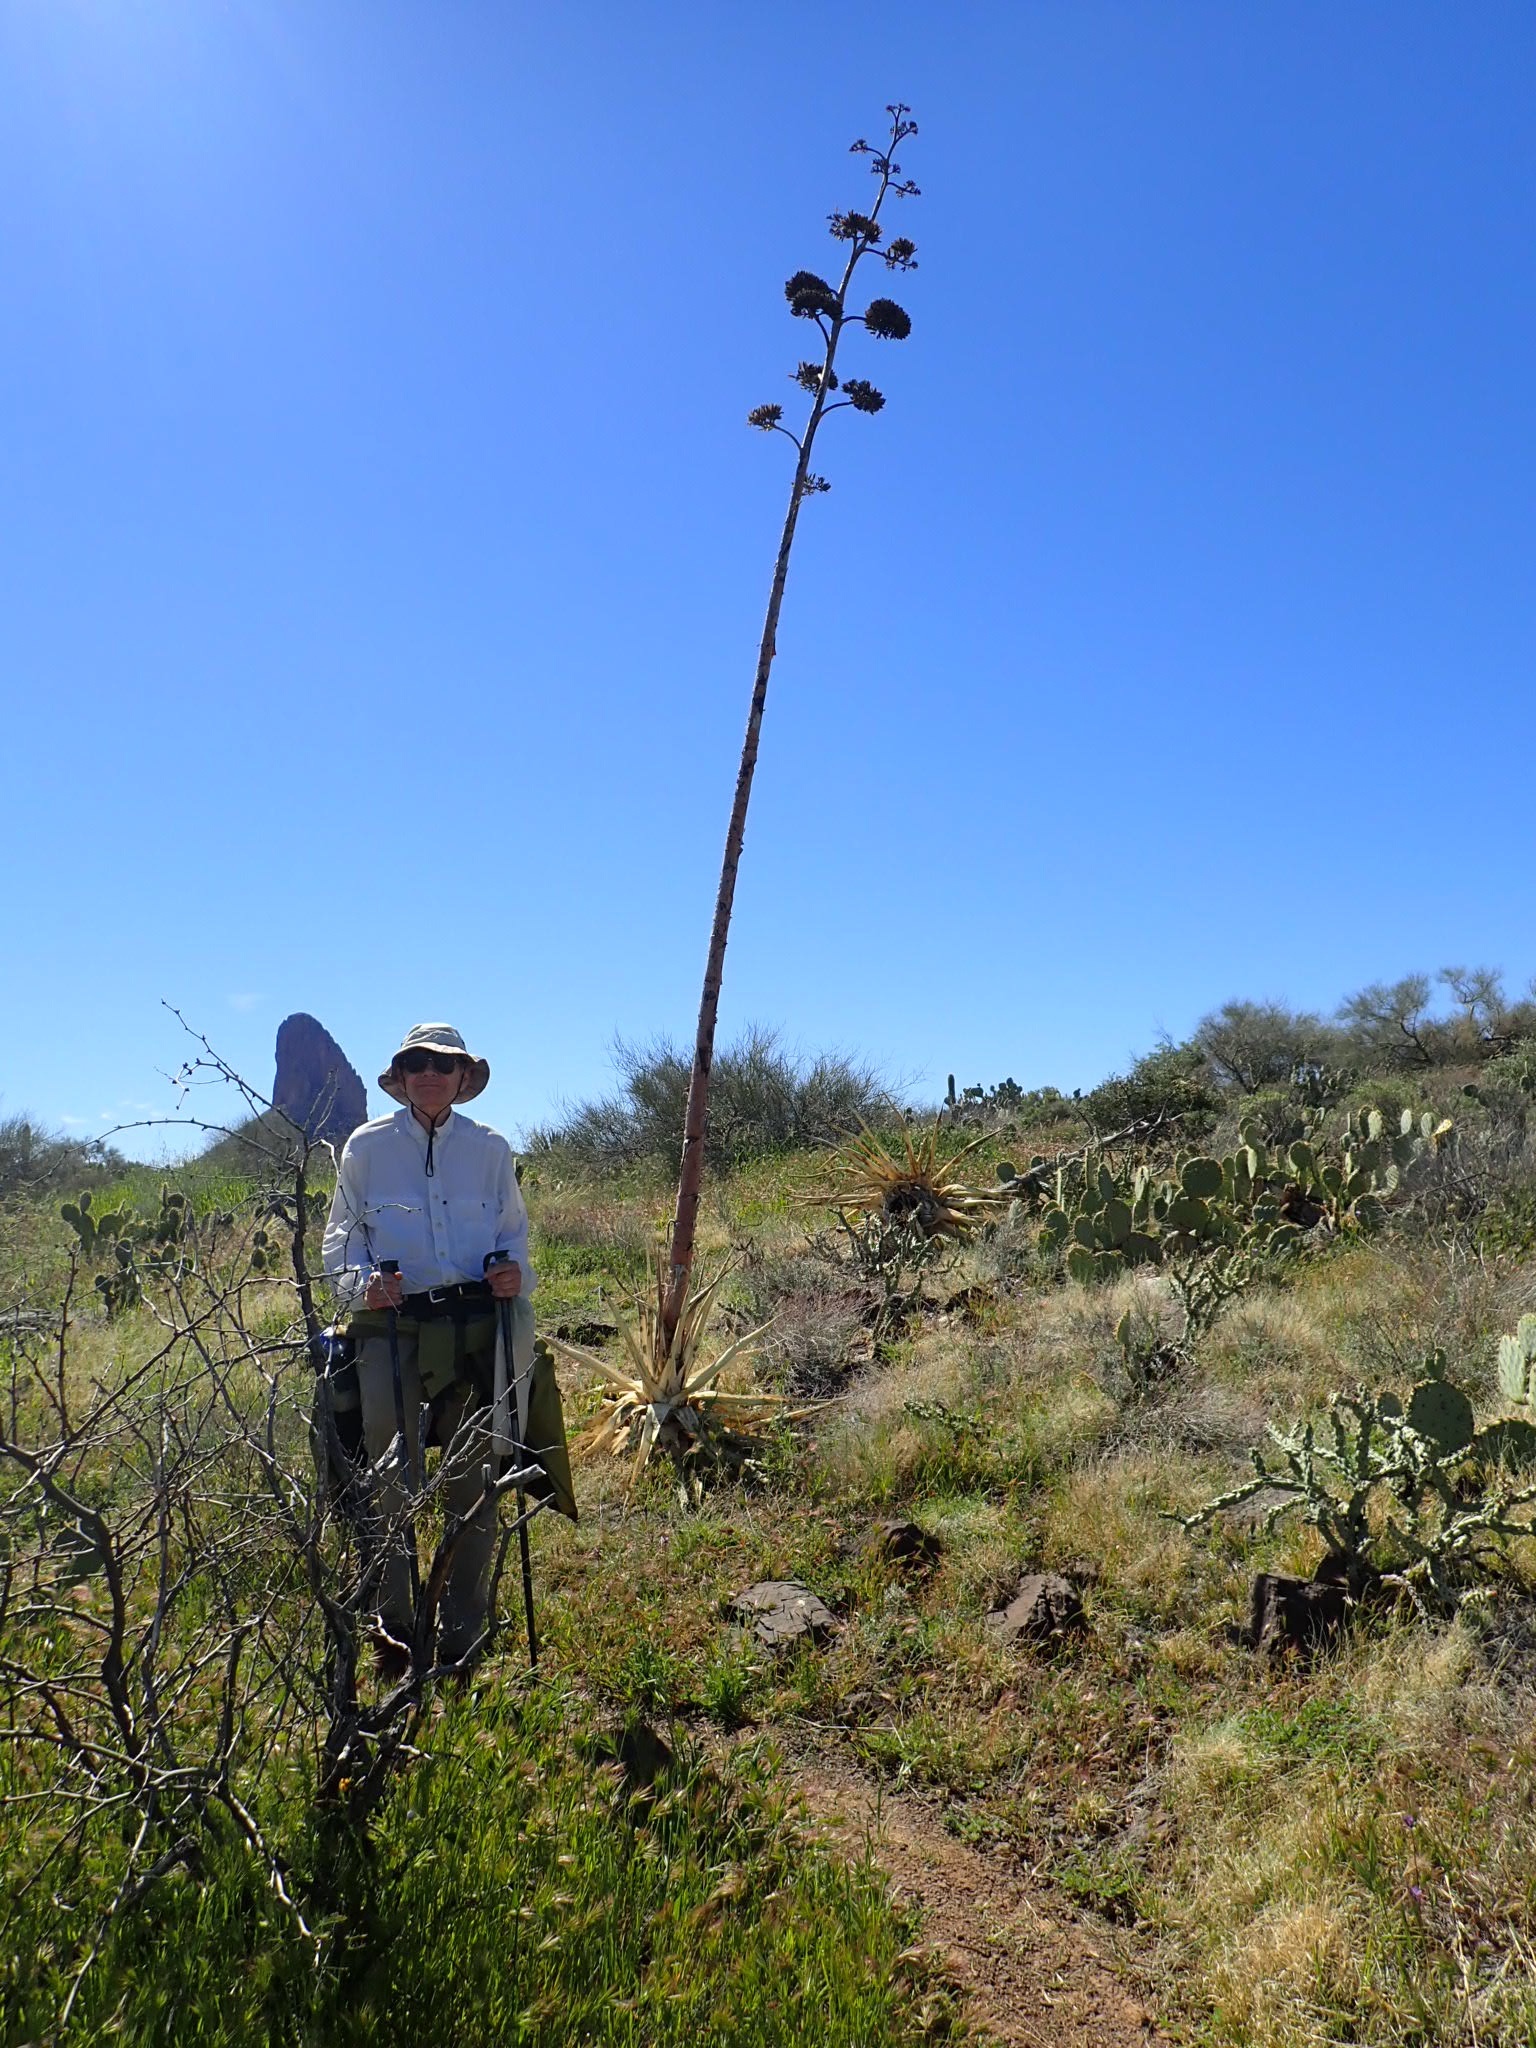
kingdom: Plantae
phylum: Tracheophyta
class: Liliopsida
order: Asparagales
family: Asparagaceae
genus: Agave
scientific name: Agave chrysantha
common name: Golden-flowered agave
